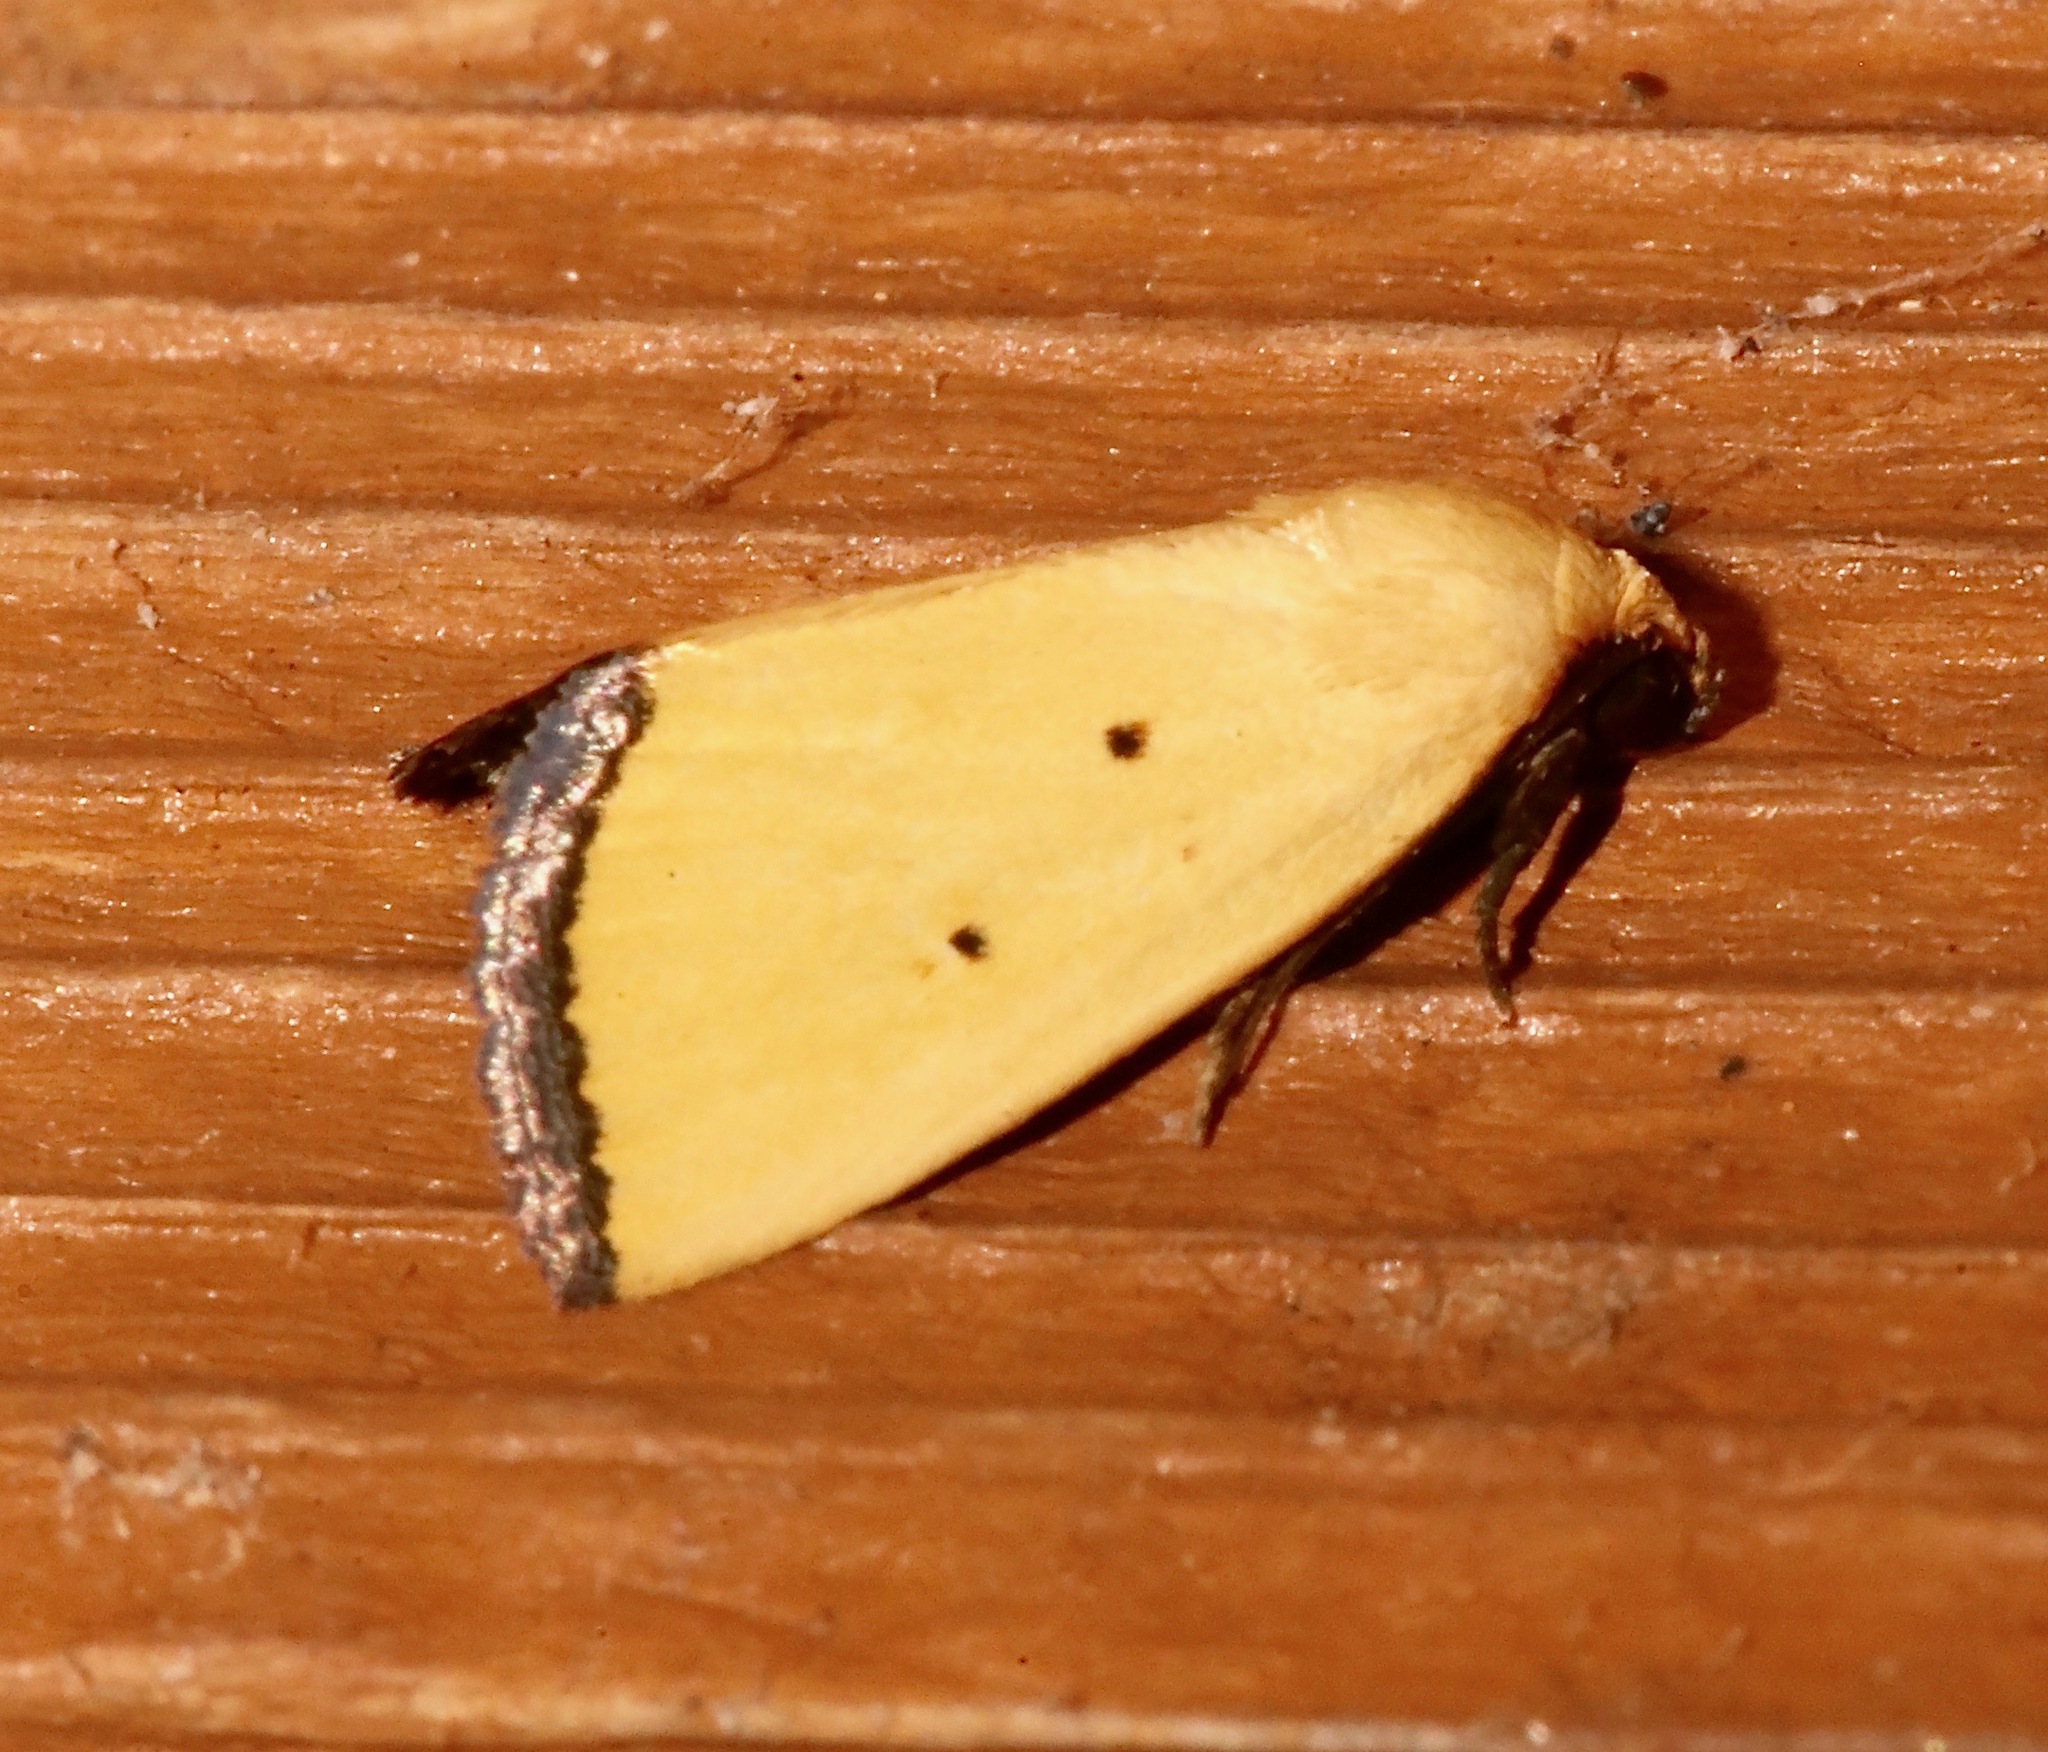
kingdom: Animalia
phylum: Arthropoda
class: Insecta
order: Lepidoptera
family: Noctuidae
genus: Marimatha
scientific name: Marimatha nigrofimbria
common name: Black-bordered lemon moth
